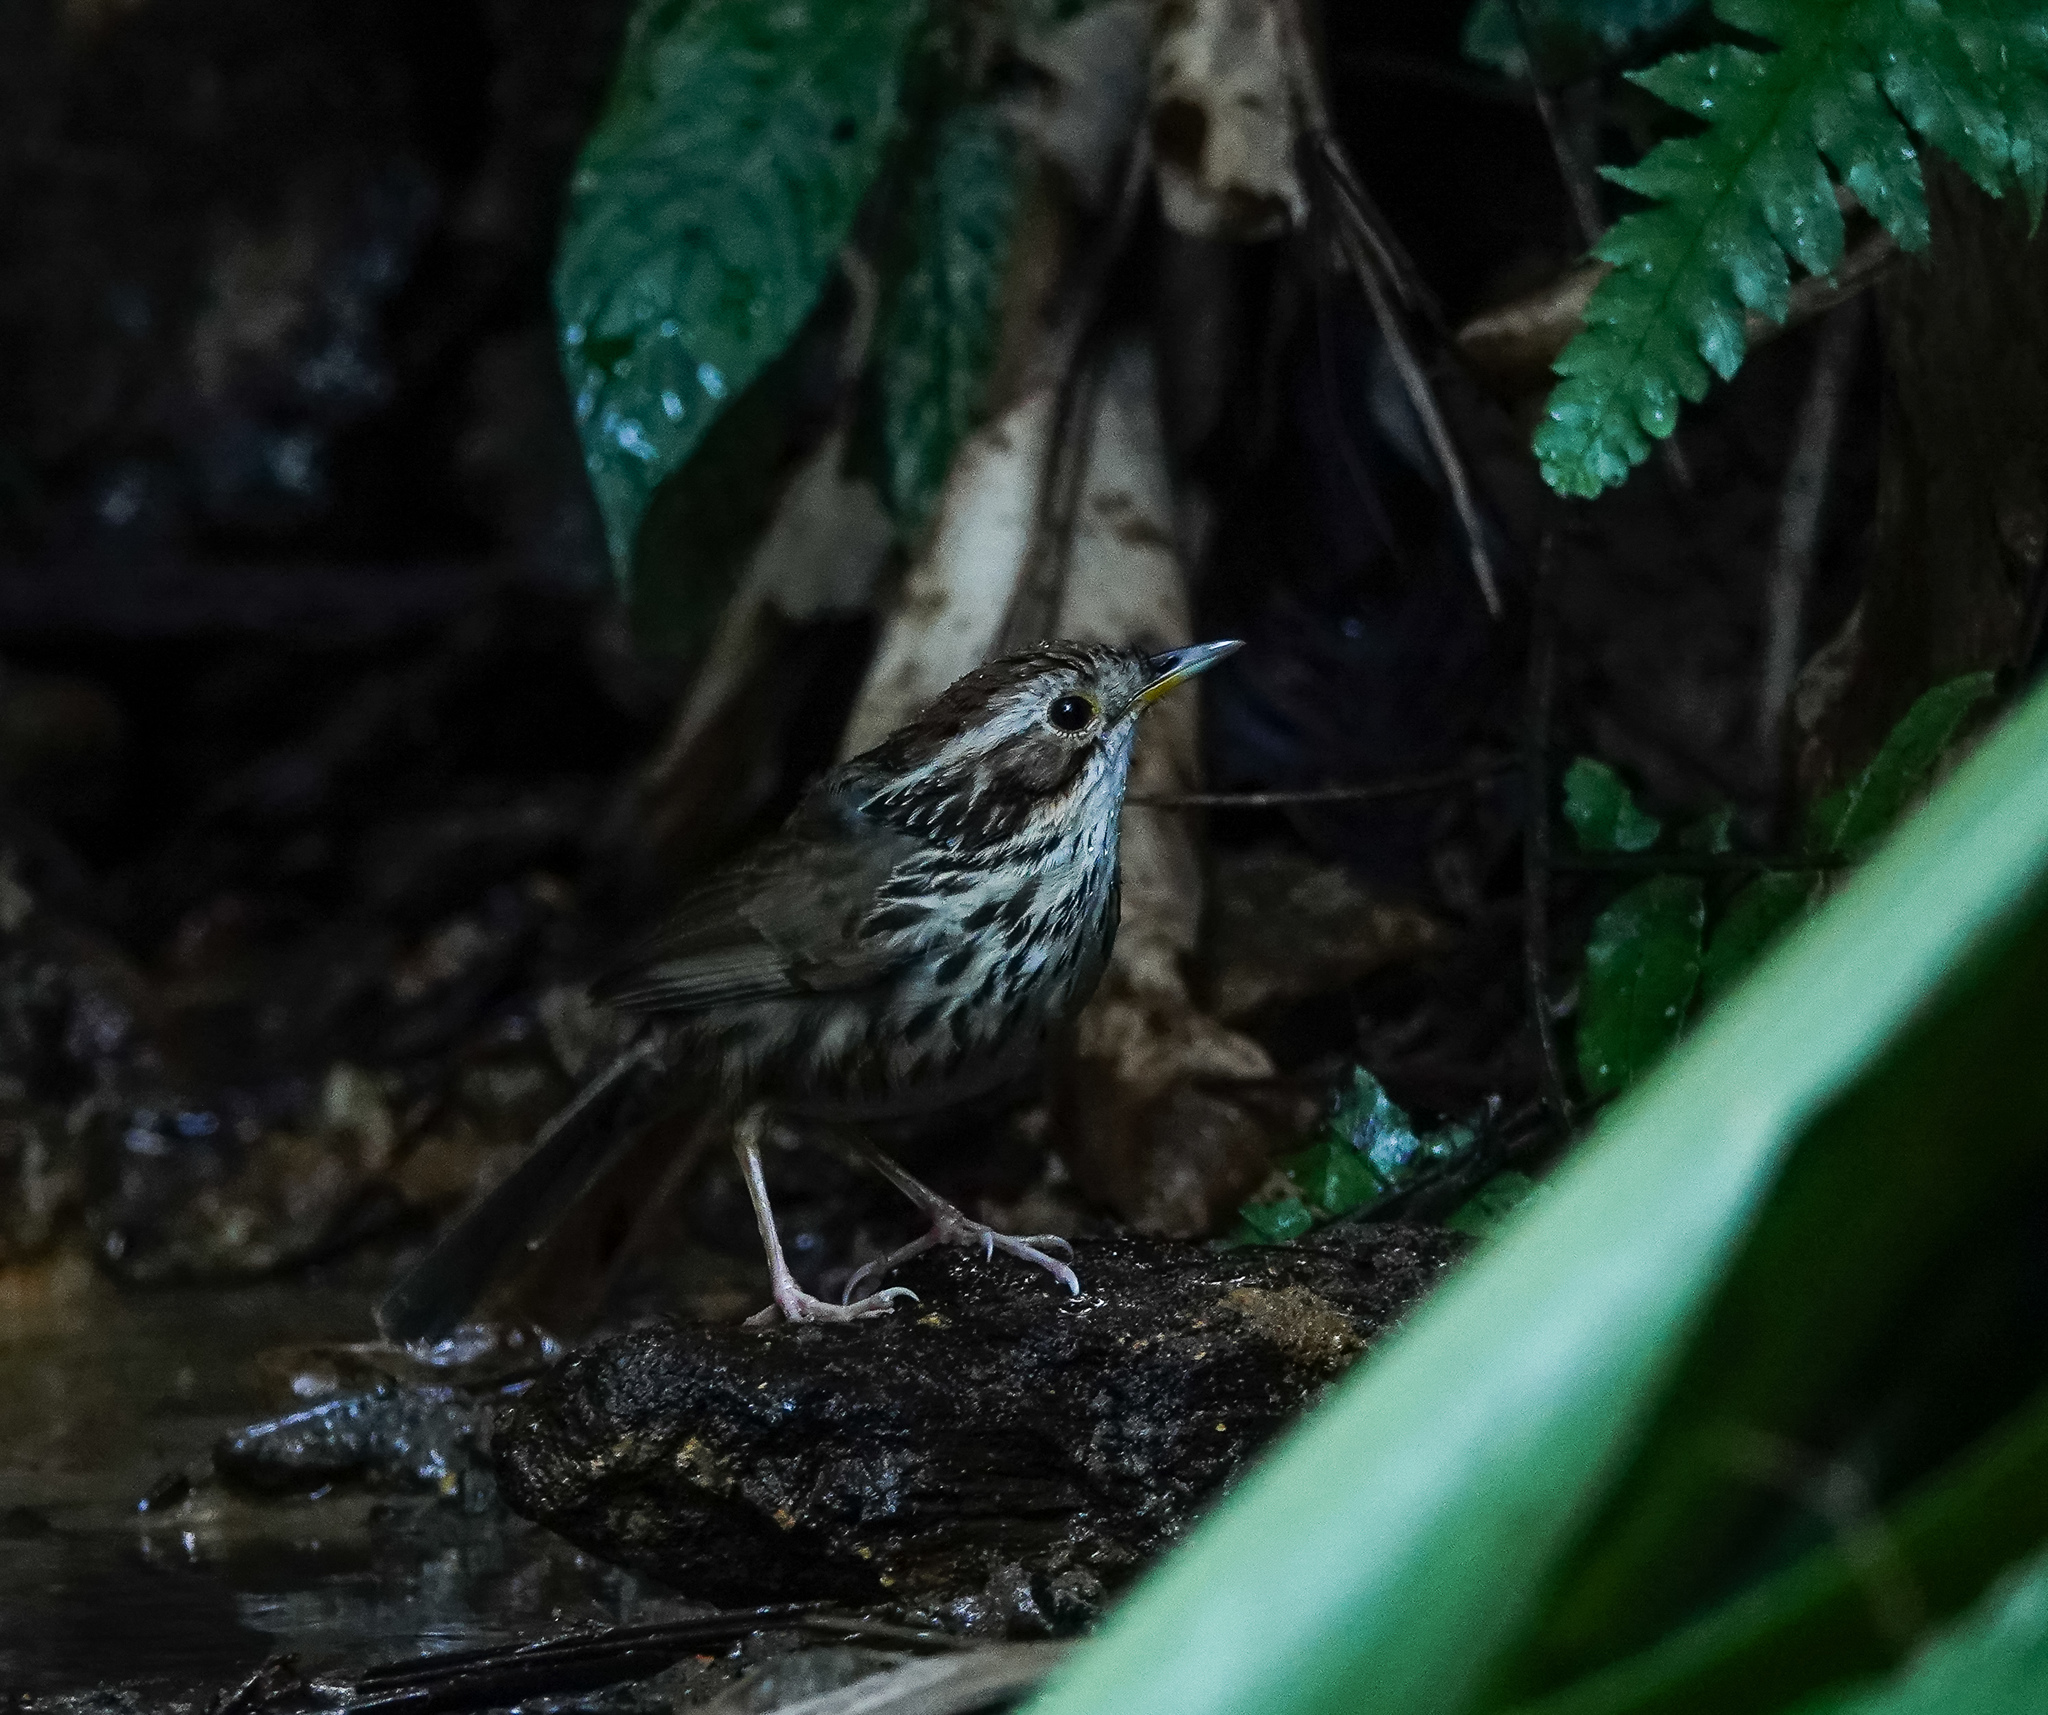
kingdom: Animalia
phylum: Chordata
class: Aves
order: Passeriformes
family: Pellorneidae
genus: Pellorneum
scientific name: Pellorneum ruficeps
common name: Puff-throated babbler
